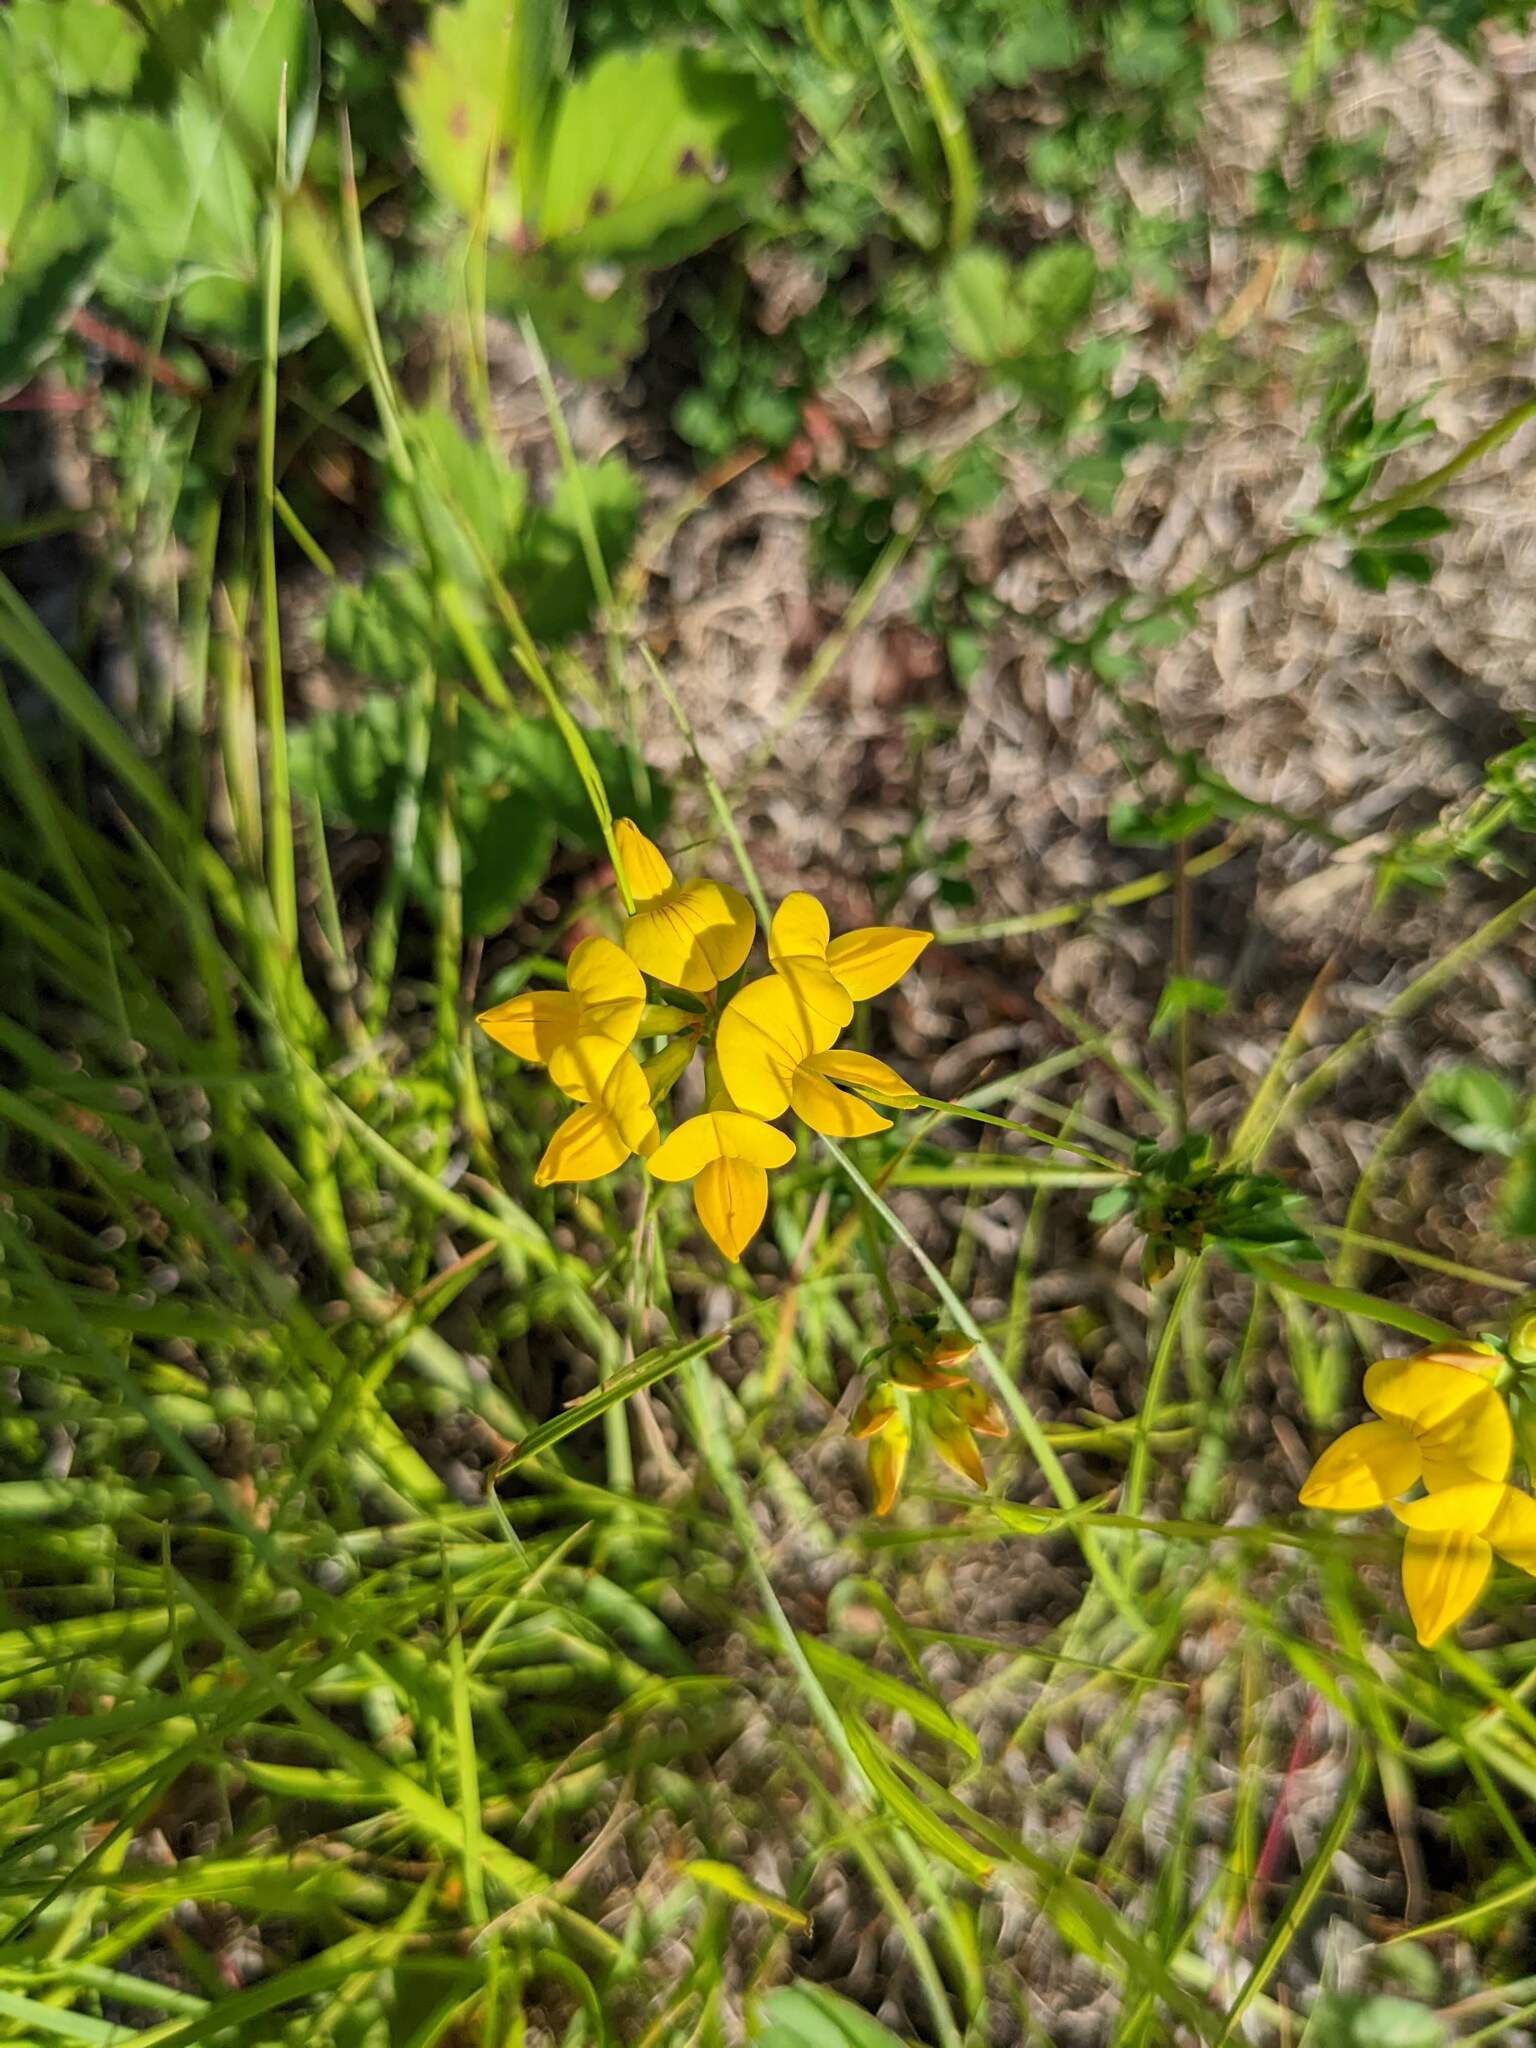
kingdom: Plantae
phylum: Tracheophyta
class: Magnoliopsida
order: Fabales
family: Fabaceae
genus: Lotus
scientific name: Lotus corniculatus
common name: Common bird's-foot-trefoil
